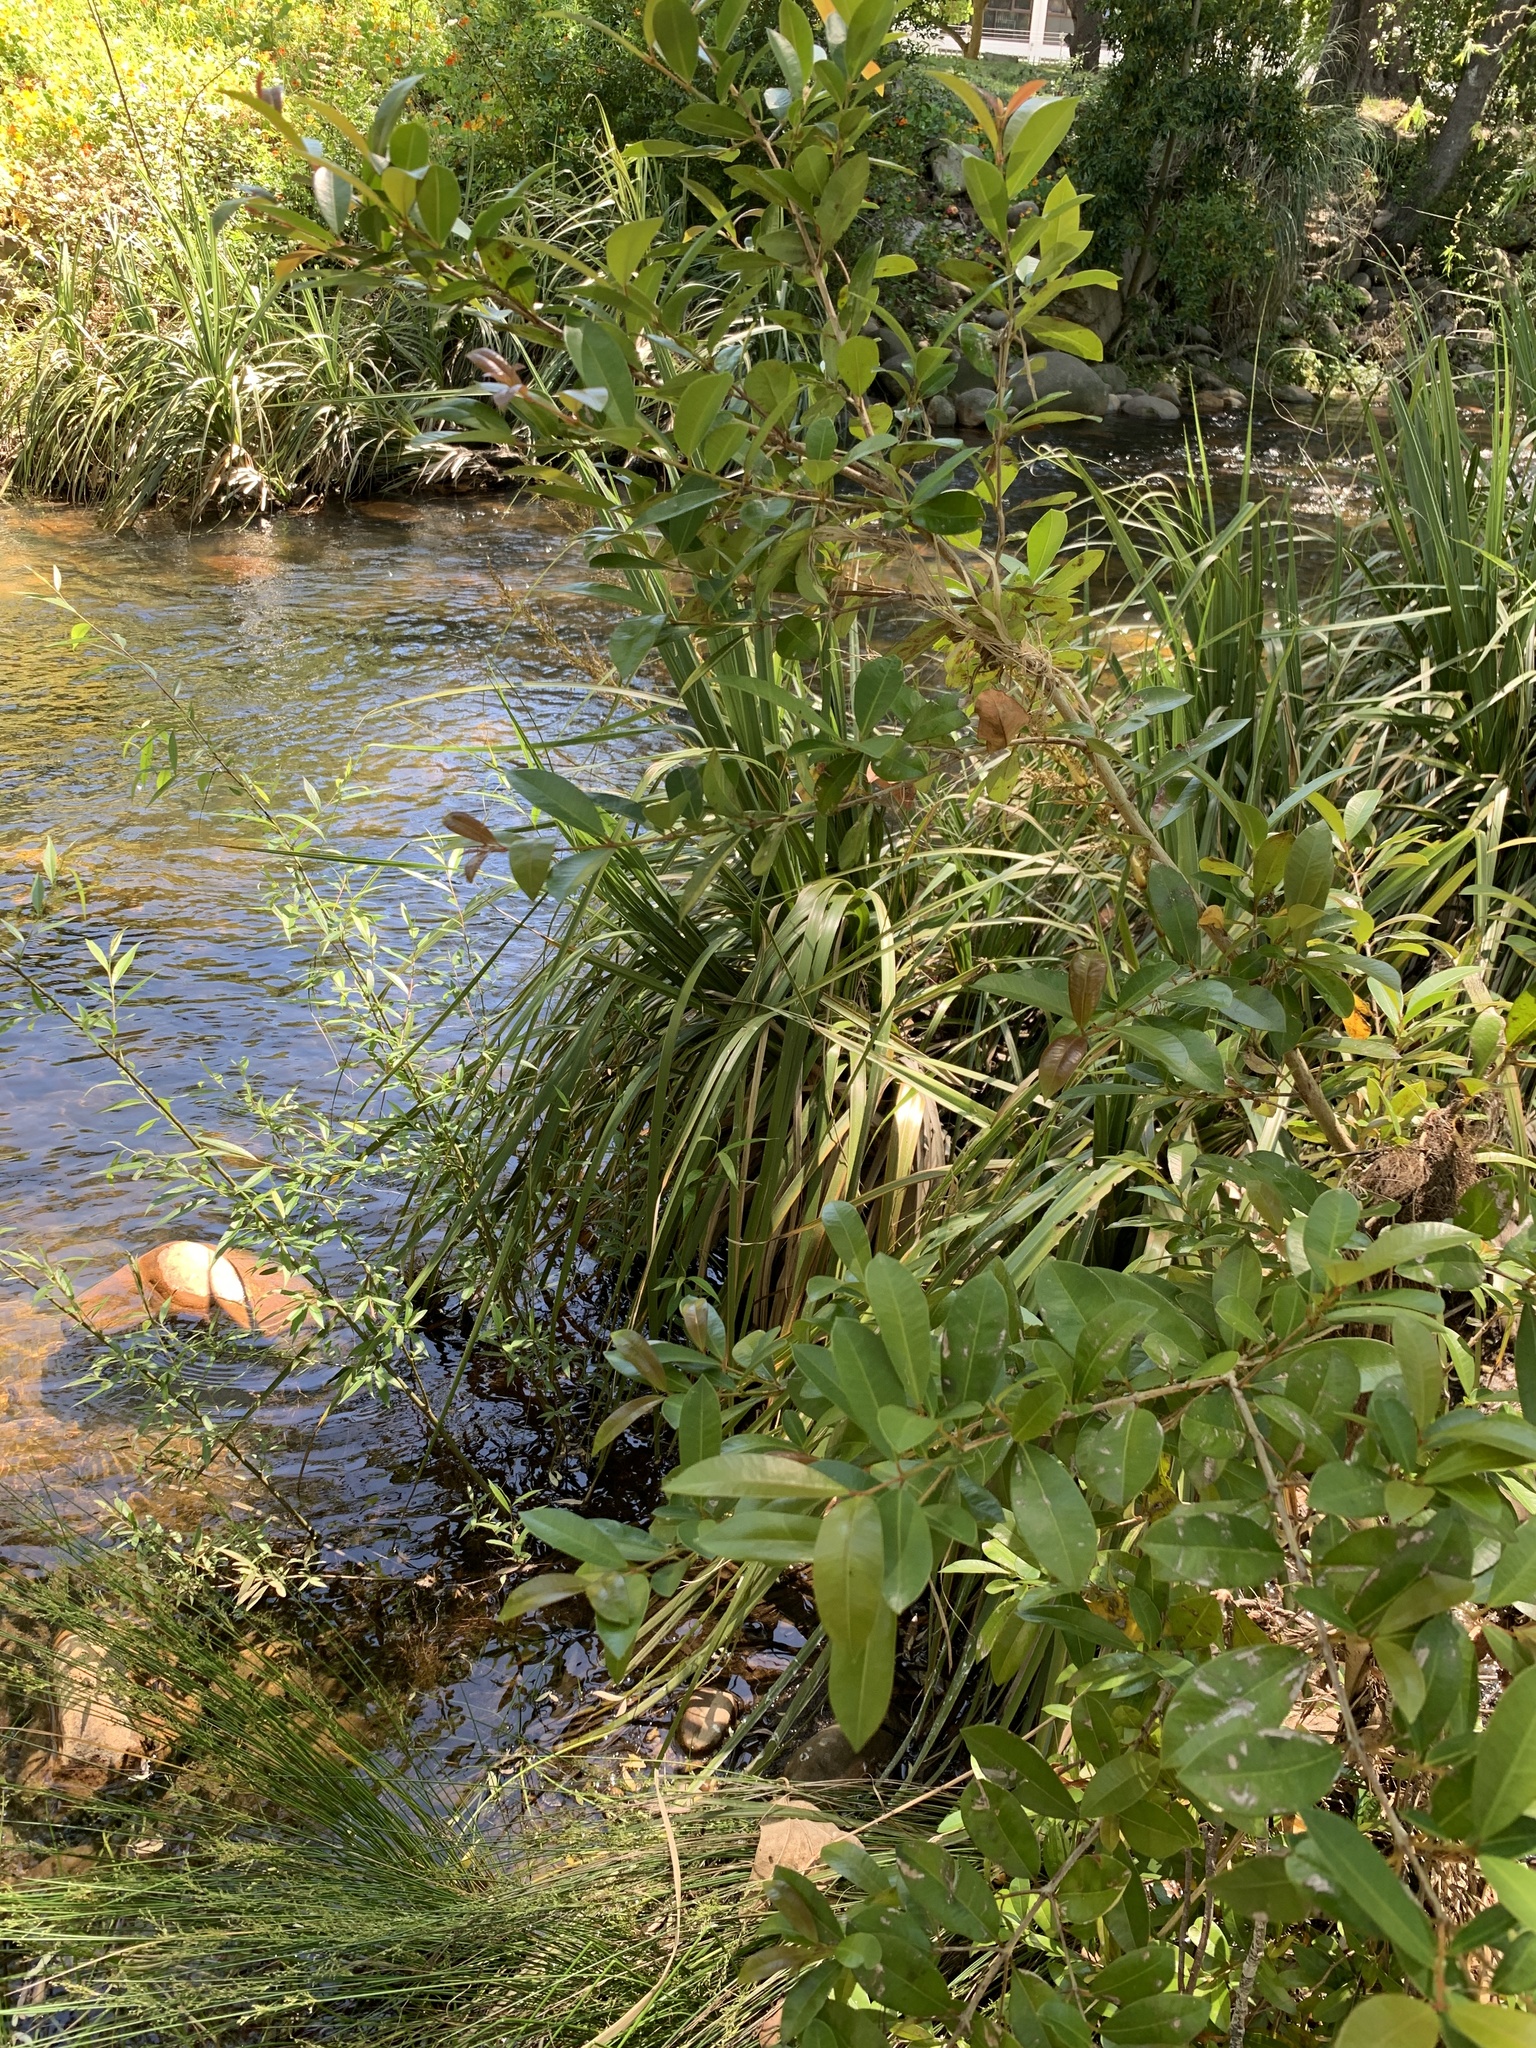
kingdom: Plantae
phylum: Tracheophyta
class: Magnoliopsida
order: Myrtales
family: Myrtaceae
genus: Syzygium
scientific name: Syzygium australe
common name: Australian brush-cherry
